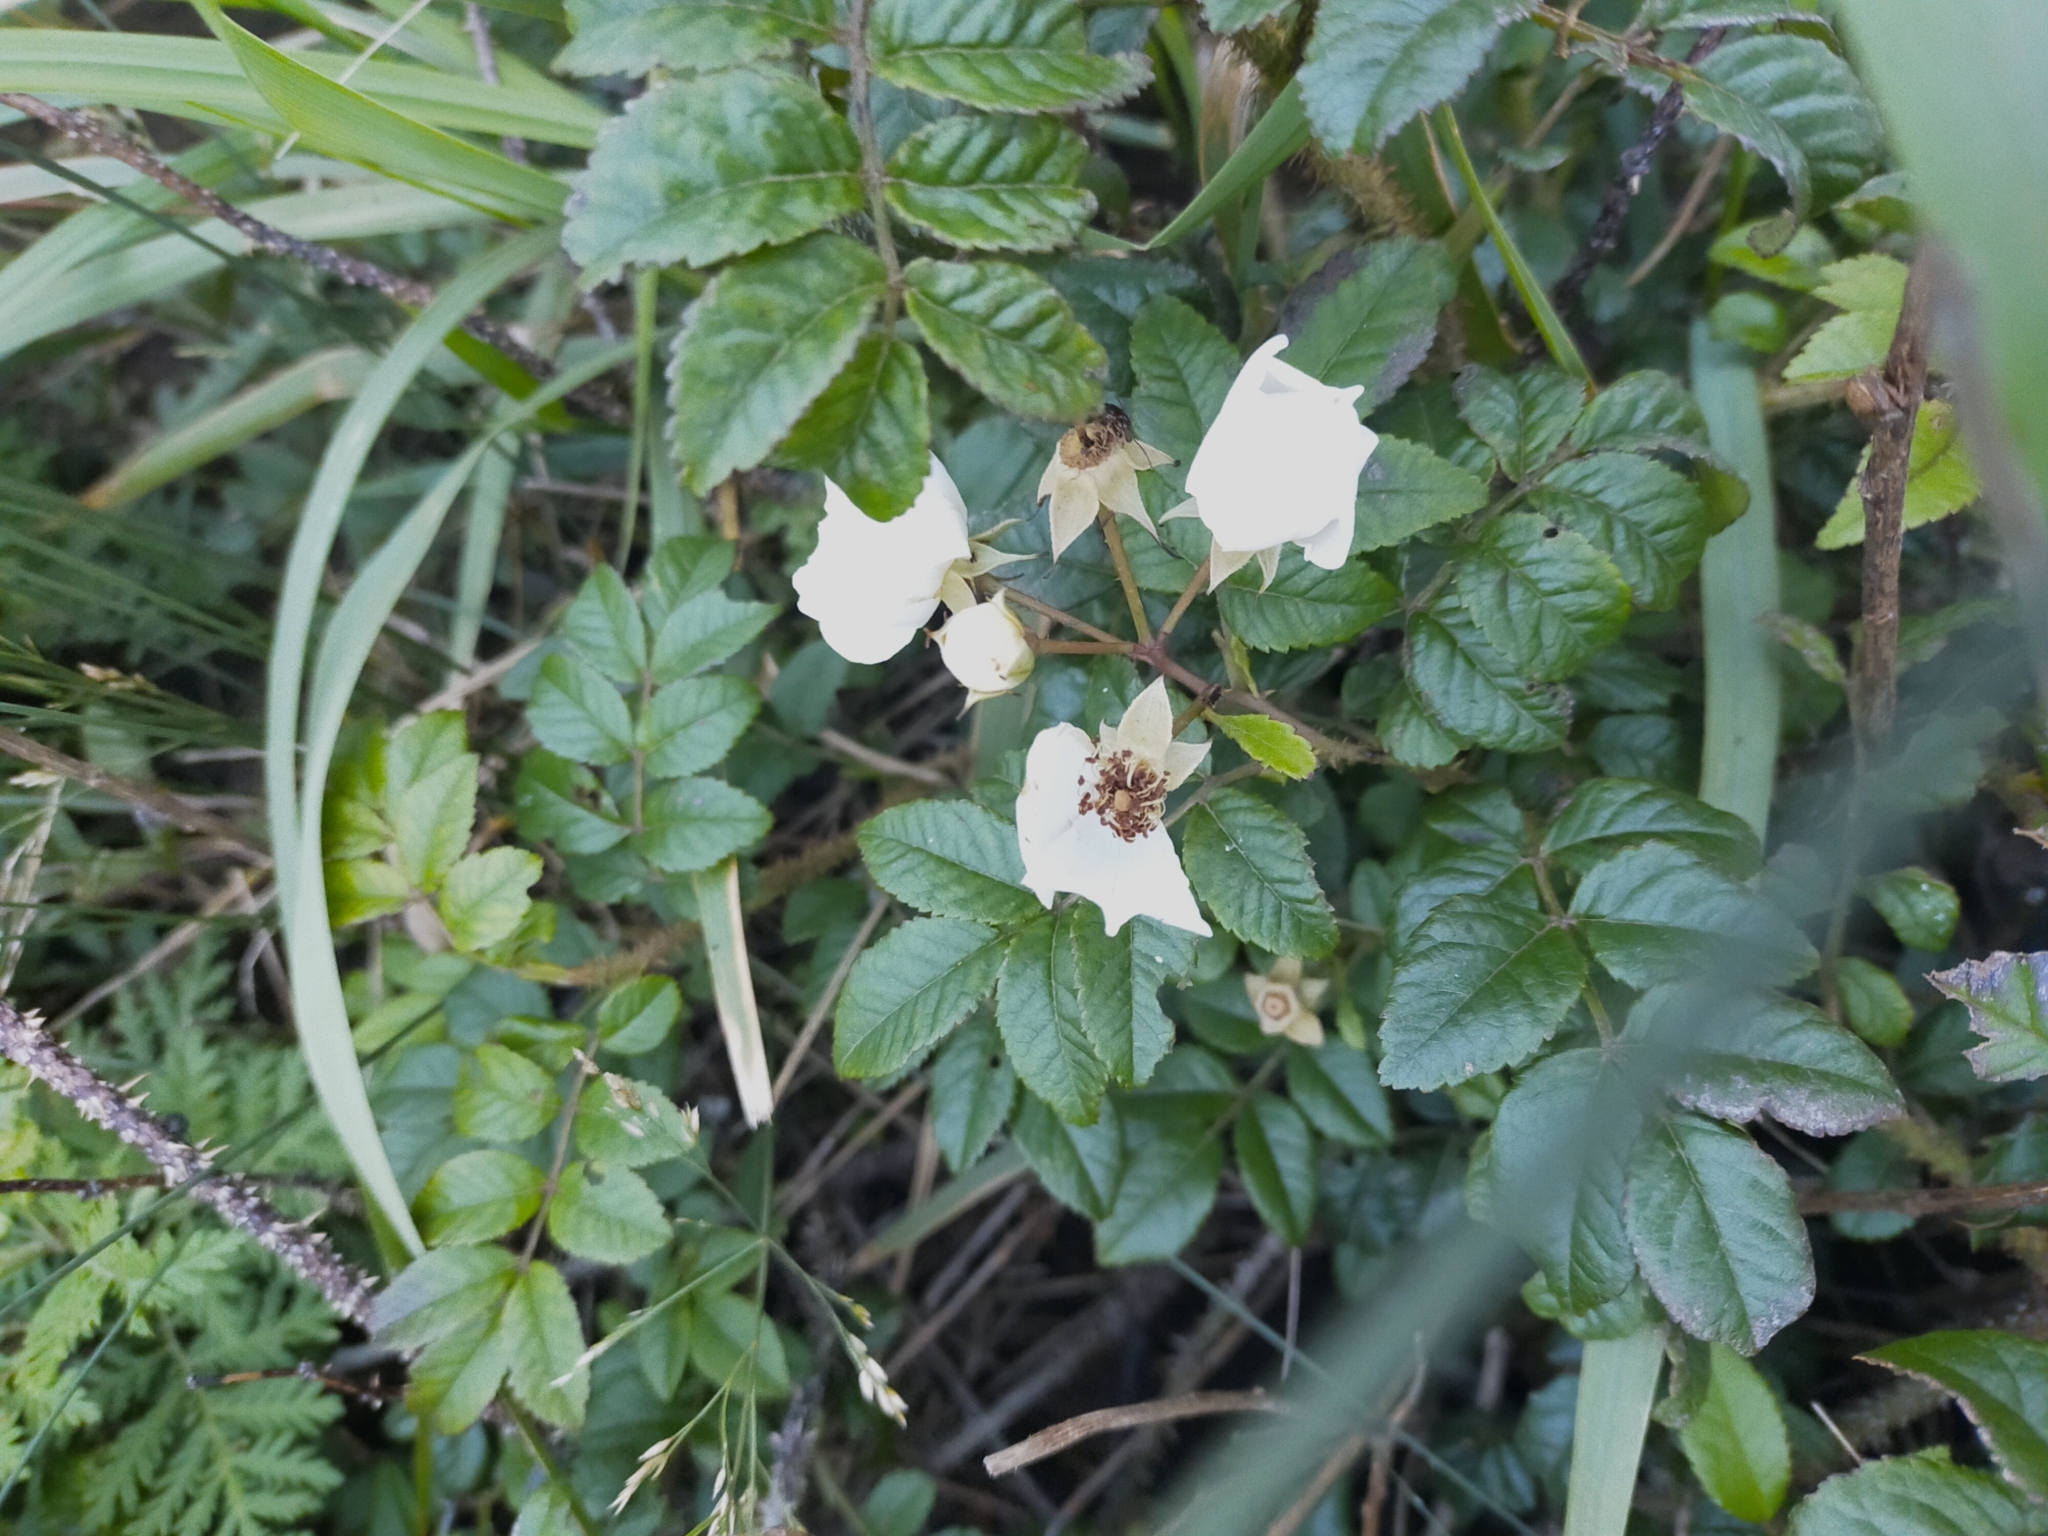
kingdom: Plantae
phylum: Tracheophyta
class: Magnoliopsida
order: Rosales
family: Rosaceae
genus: Rosa
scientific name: Rosa maximowicziana
